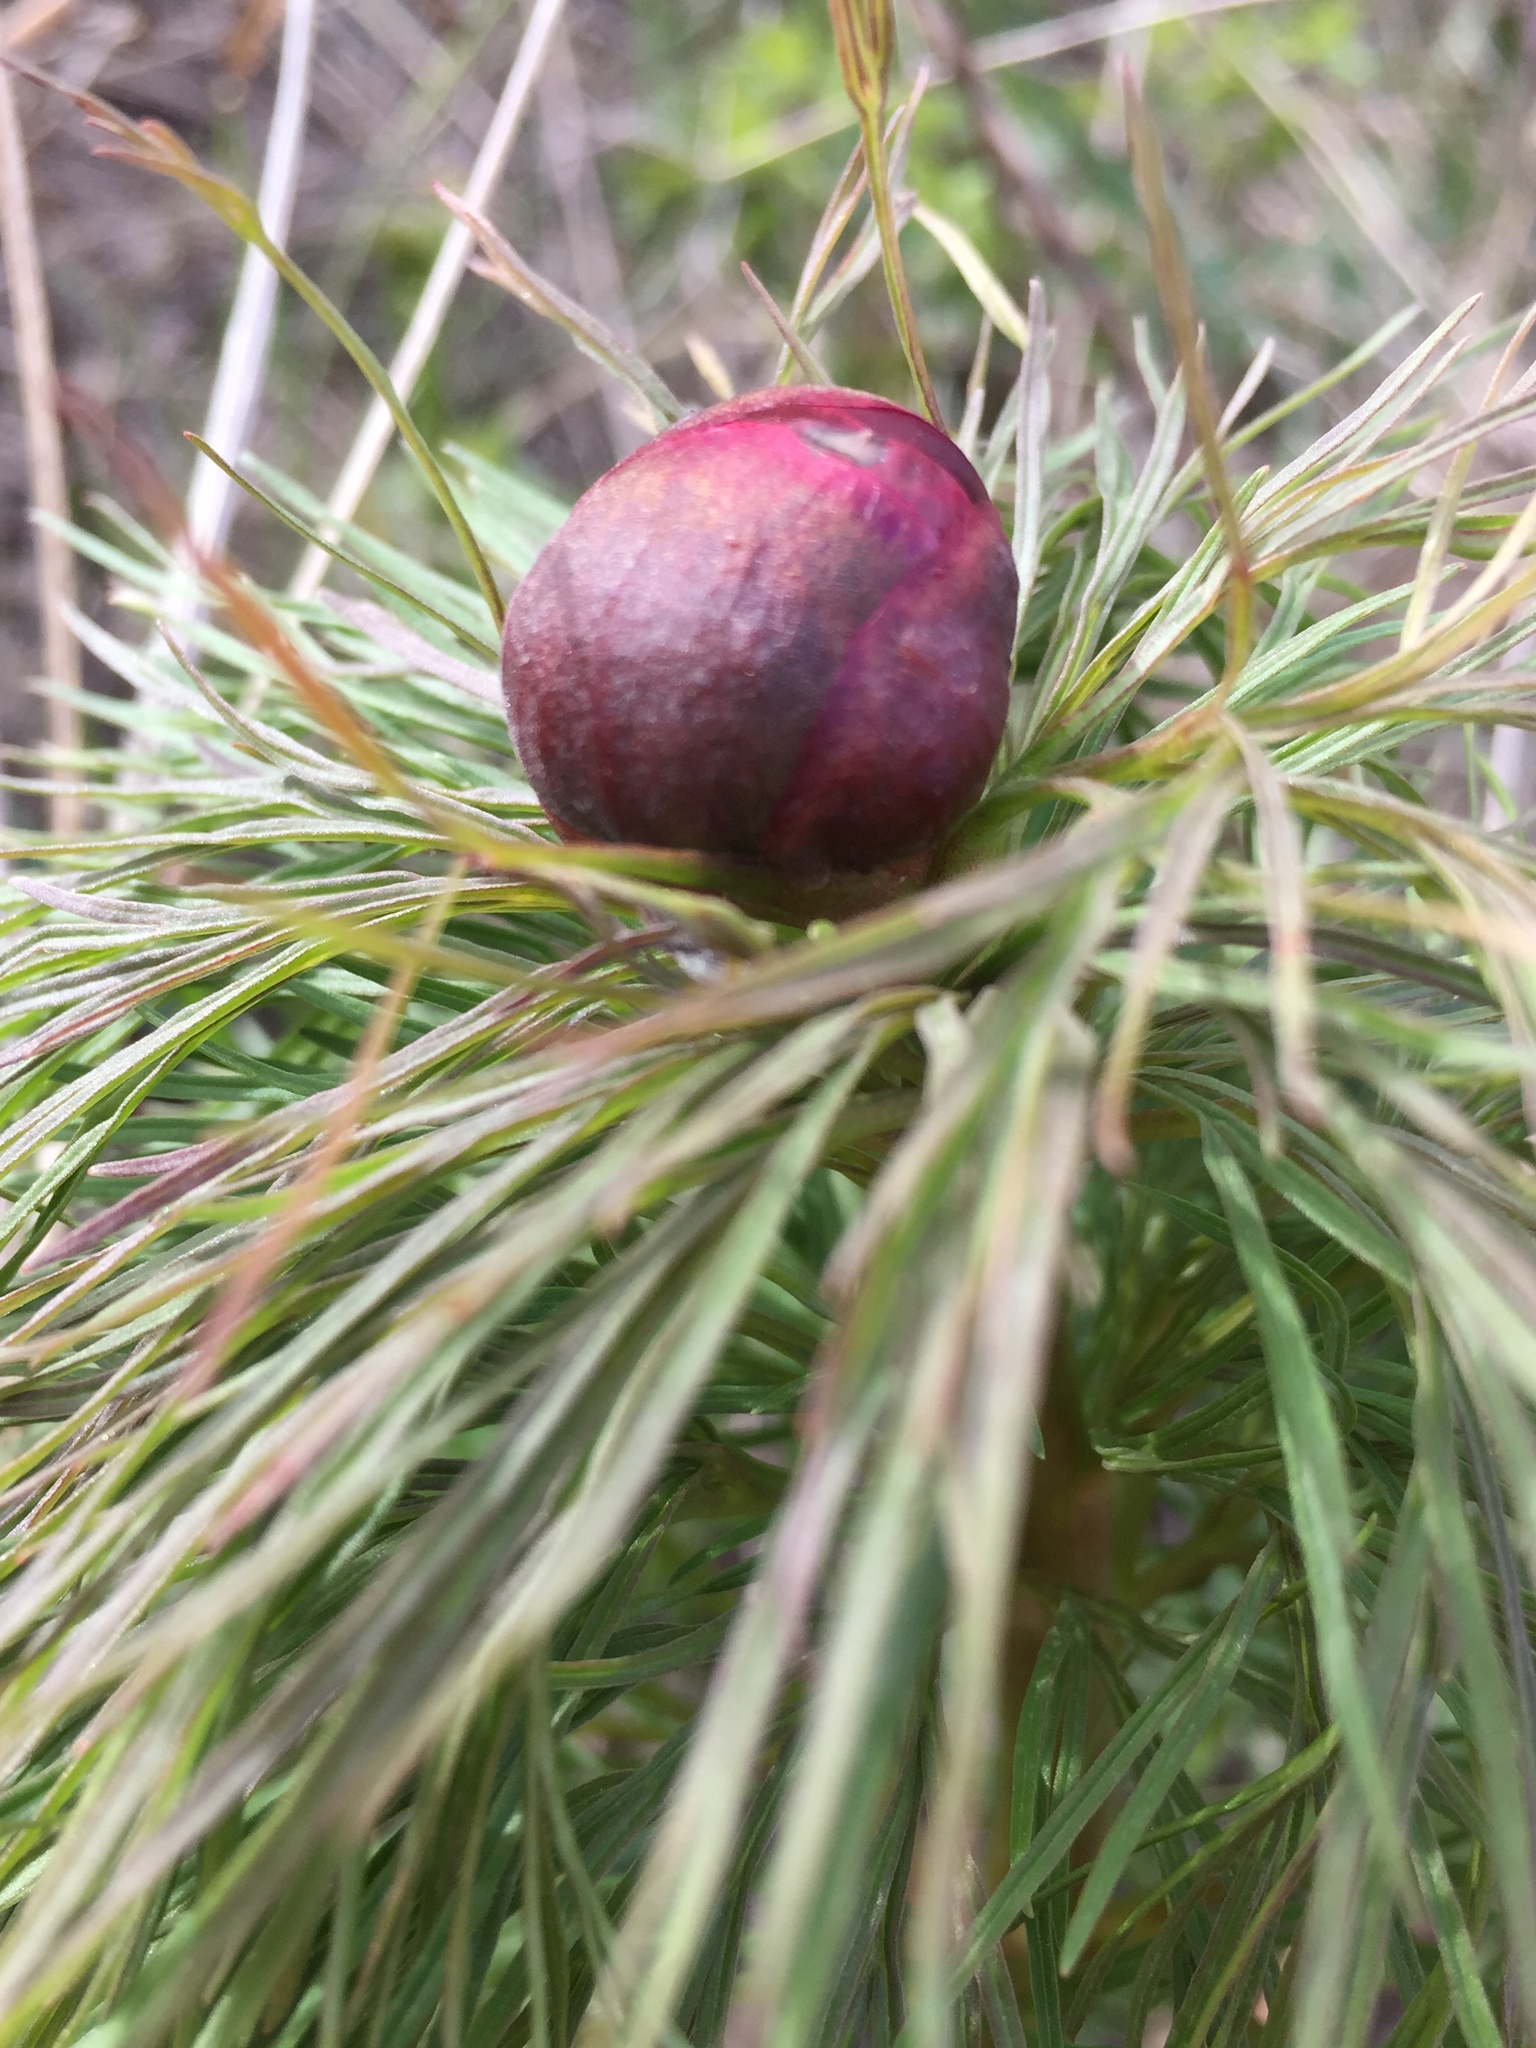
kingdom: Plantae
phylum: Tracheophyta
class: Magnoliopsida
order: Saxifragales
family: Paeoniaceae
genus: Paeonia
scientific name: Paeonia tenuifolia
